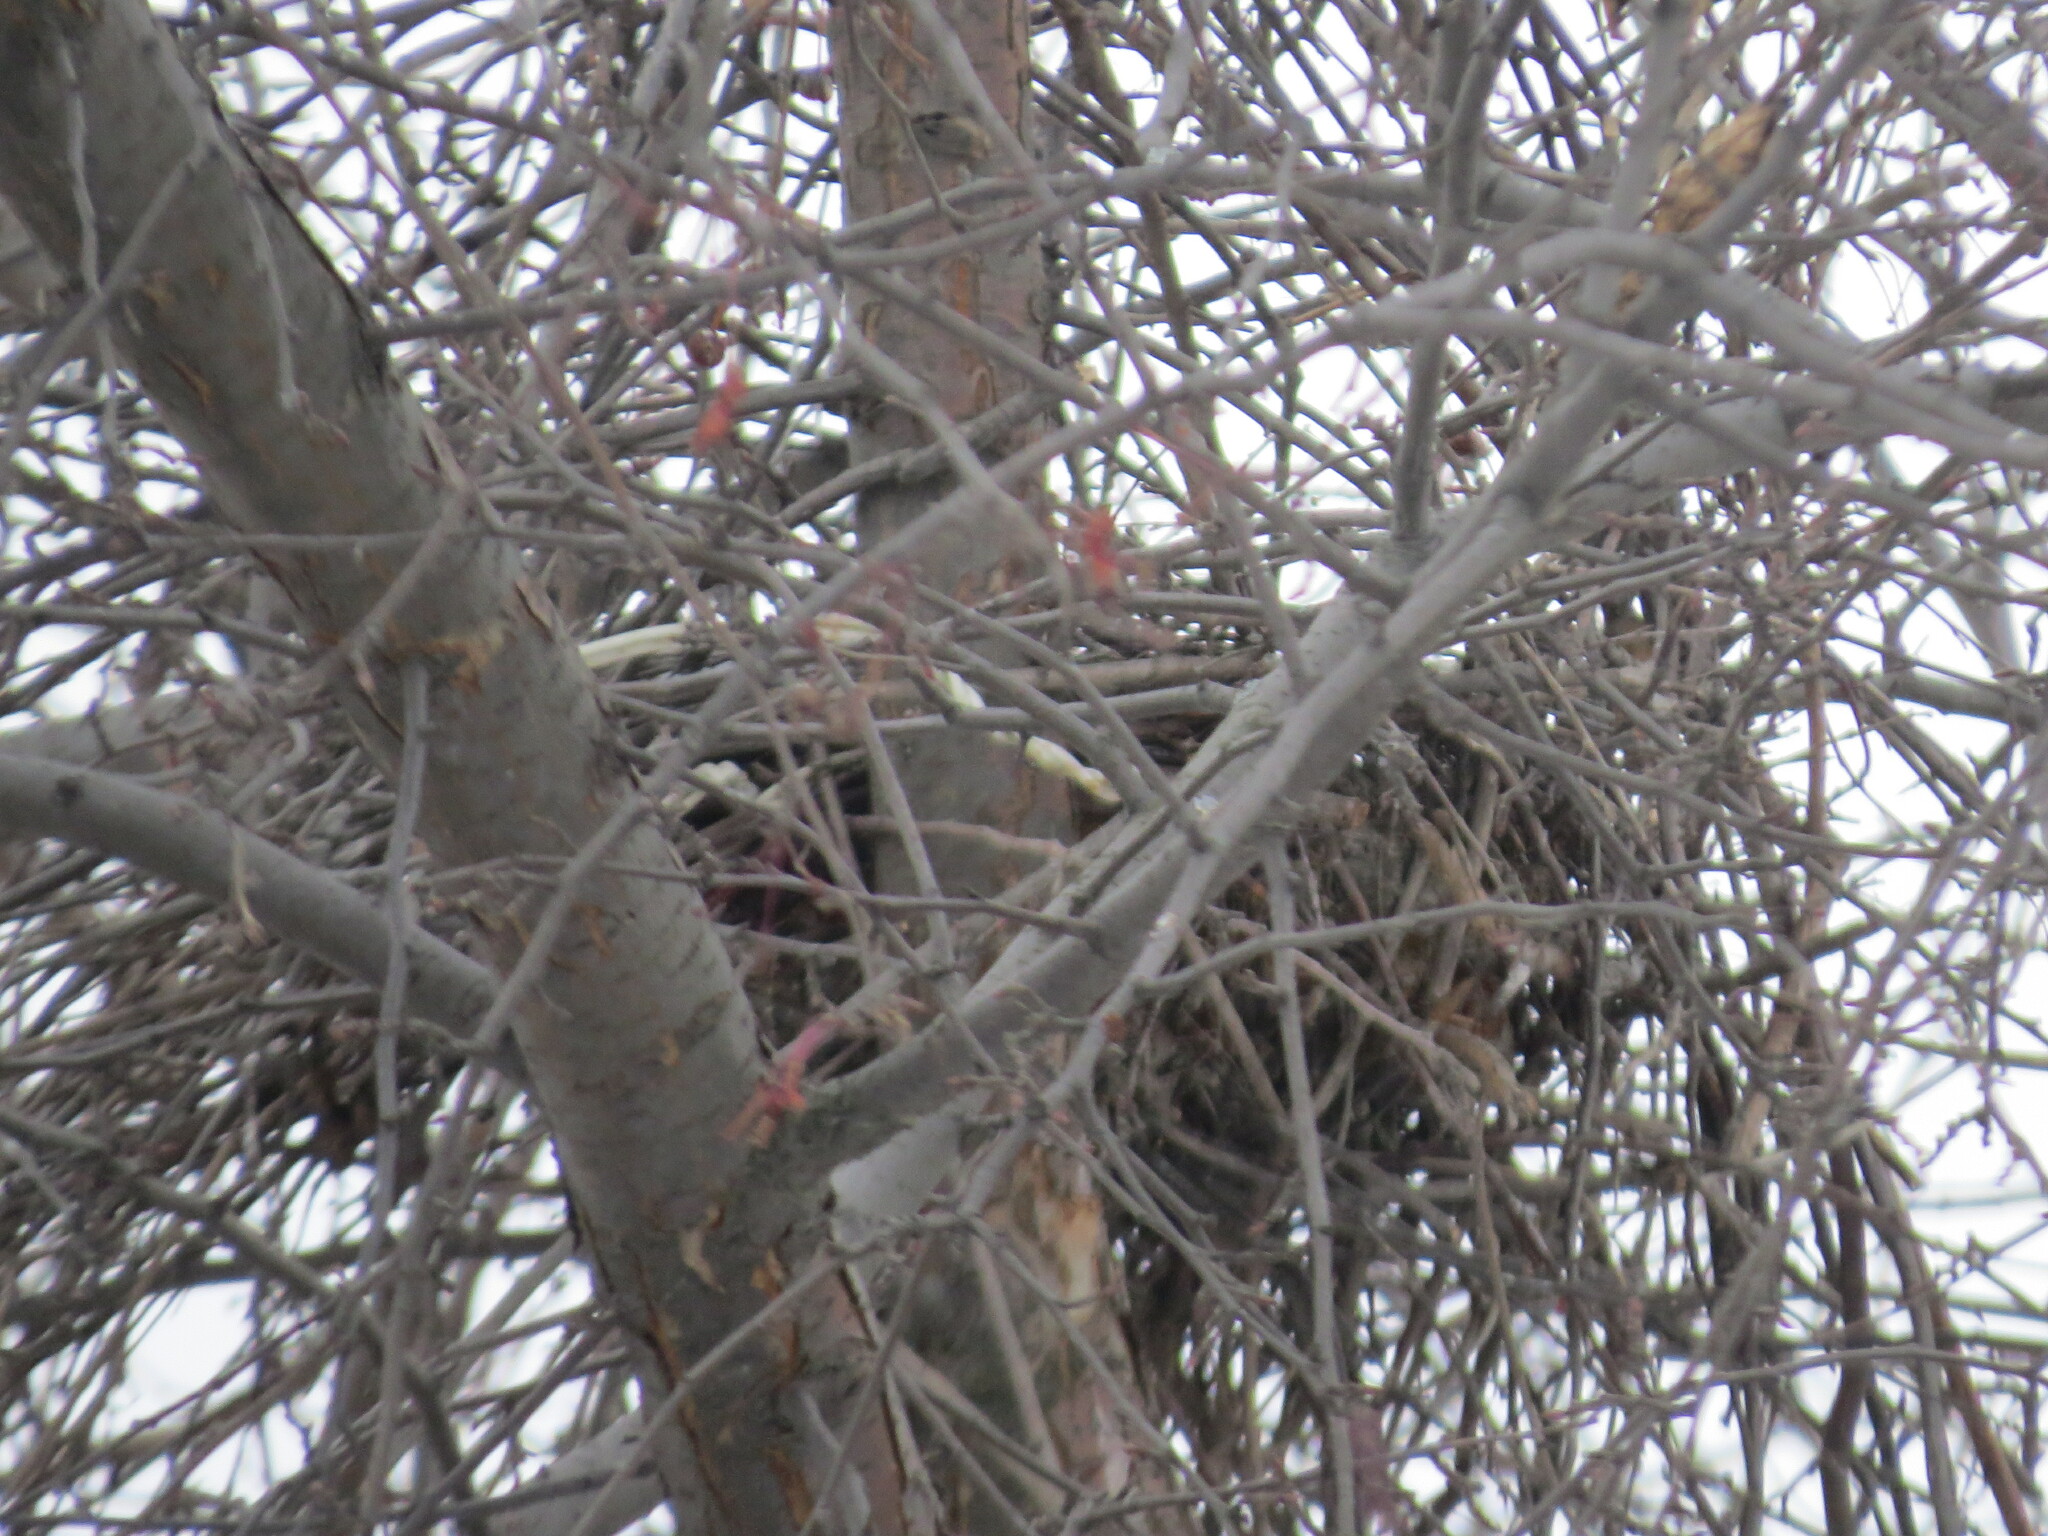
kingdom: Animalia
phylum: Chordata
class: Aves
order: Passeriformes
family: Corvidae
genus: Corvus
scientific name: Corvus cornix
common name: Hooded crow
